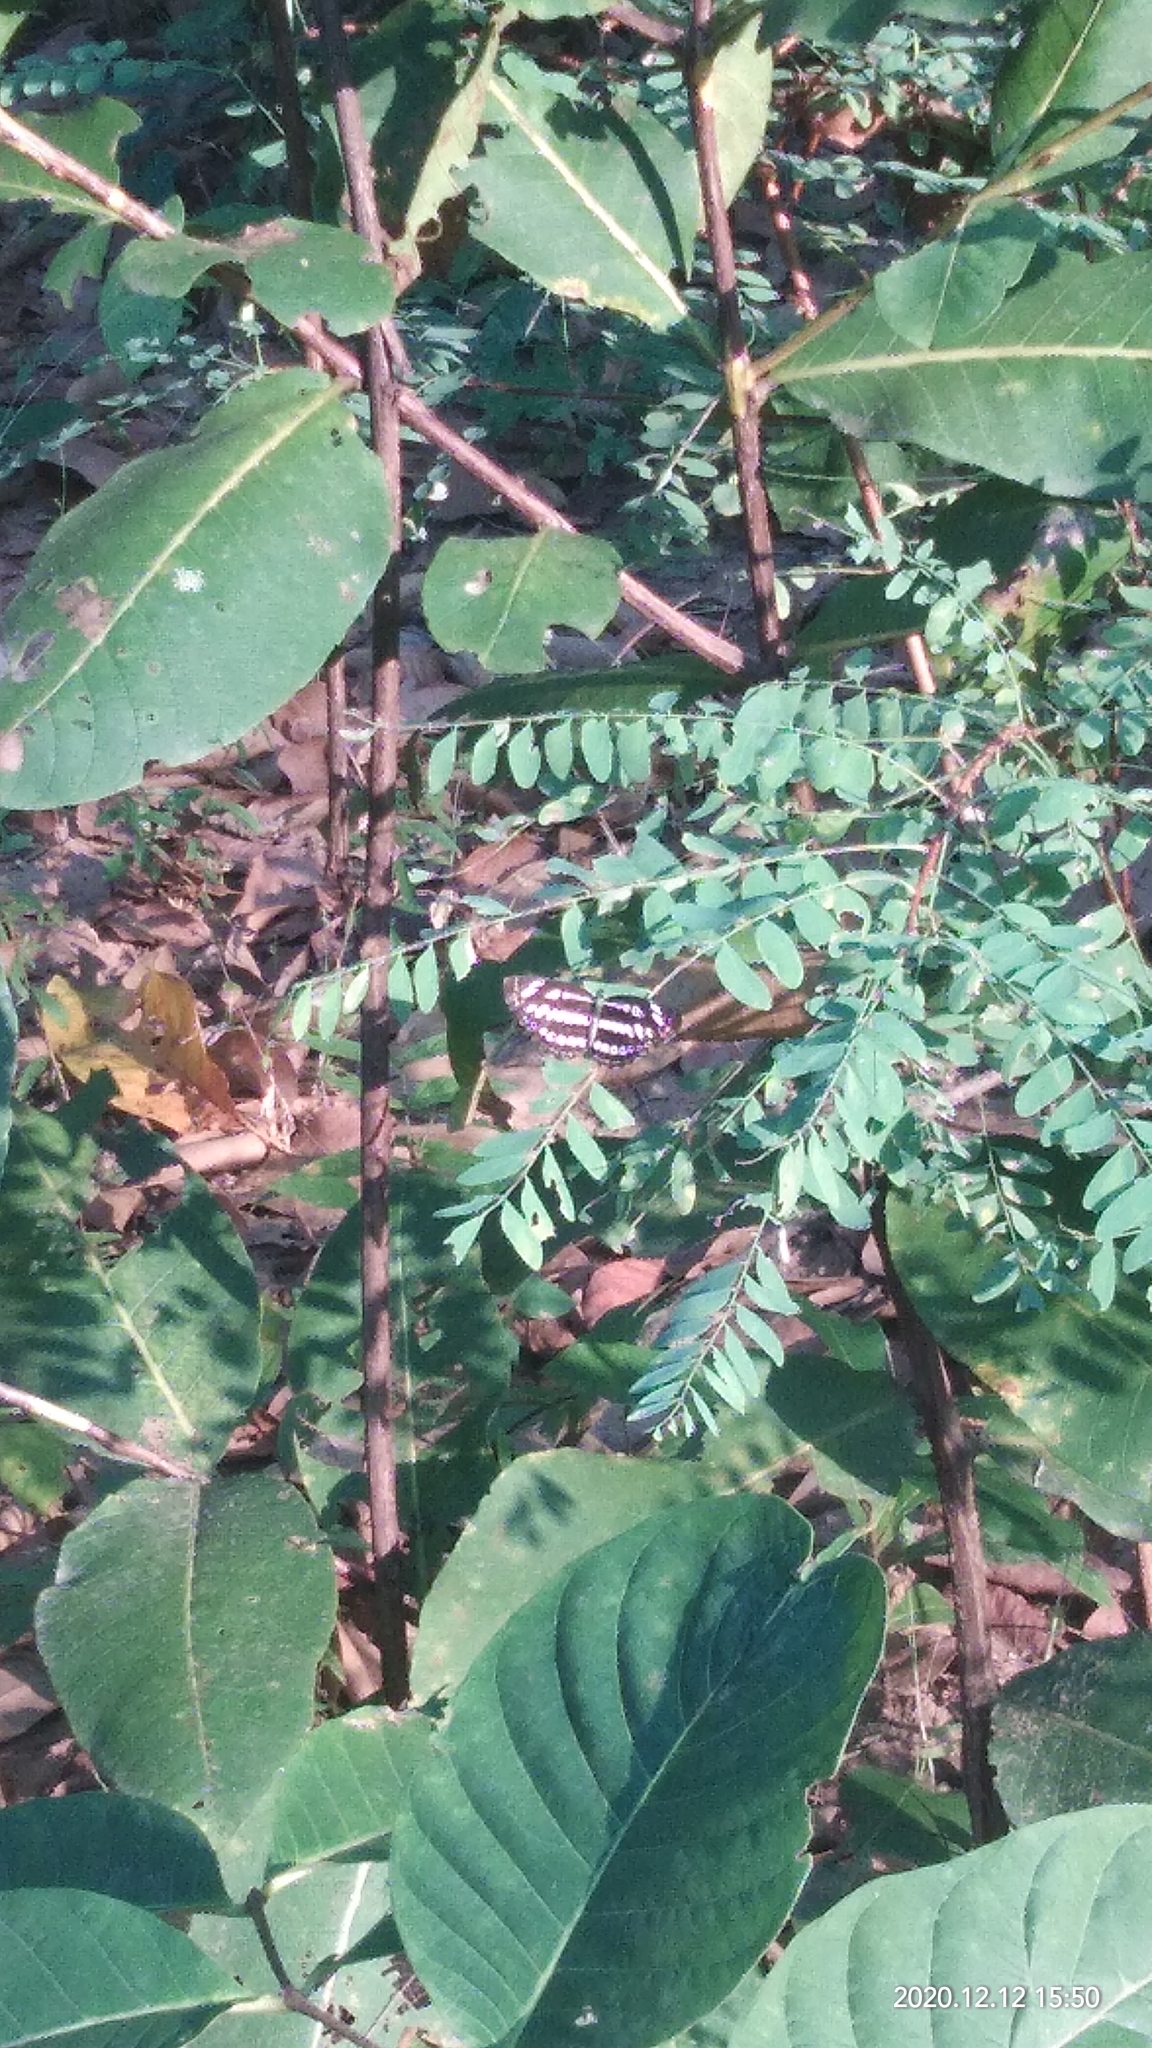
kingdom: Animalia
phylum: Arthropoda
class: Insecta
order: Lepidoptera
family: Nymphalidae
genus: Neptis
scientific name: Neptis hylas
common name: Common sailer
